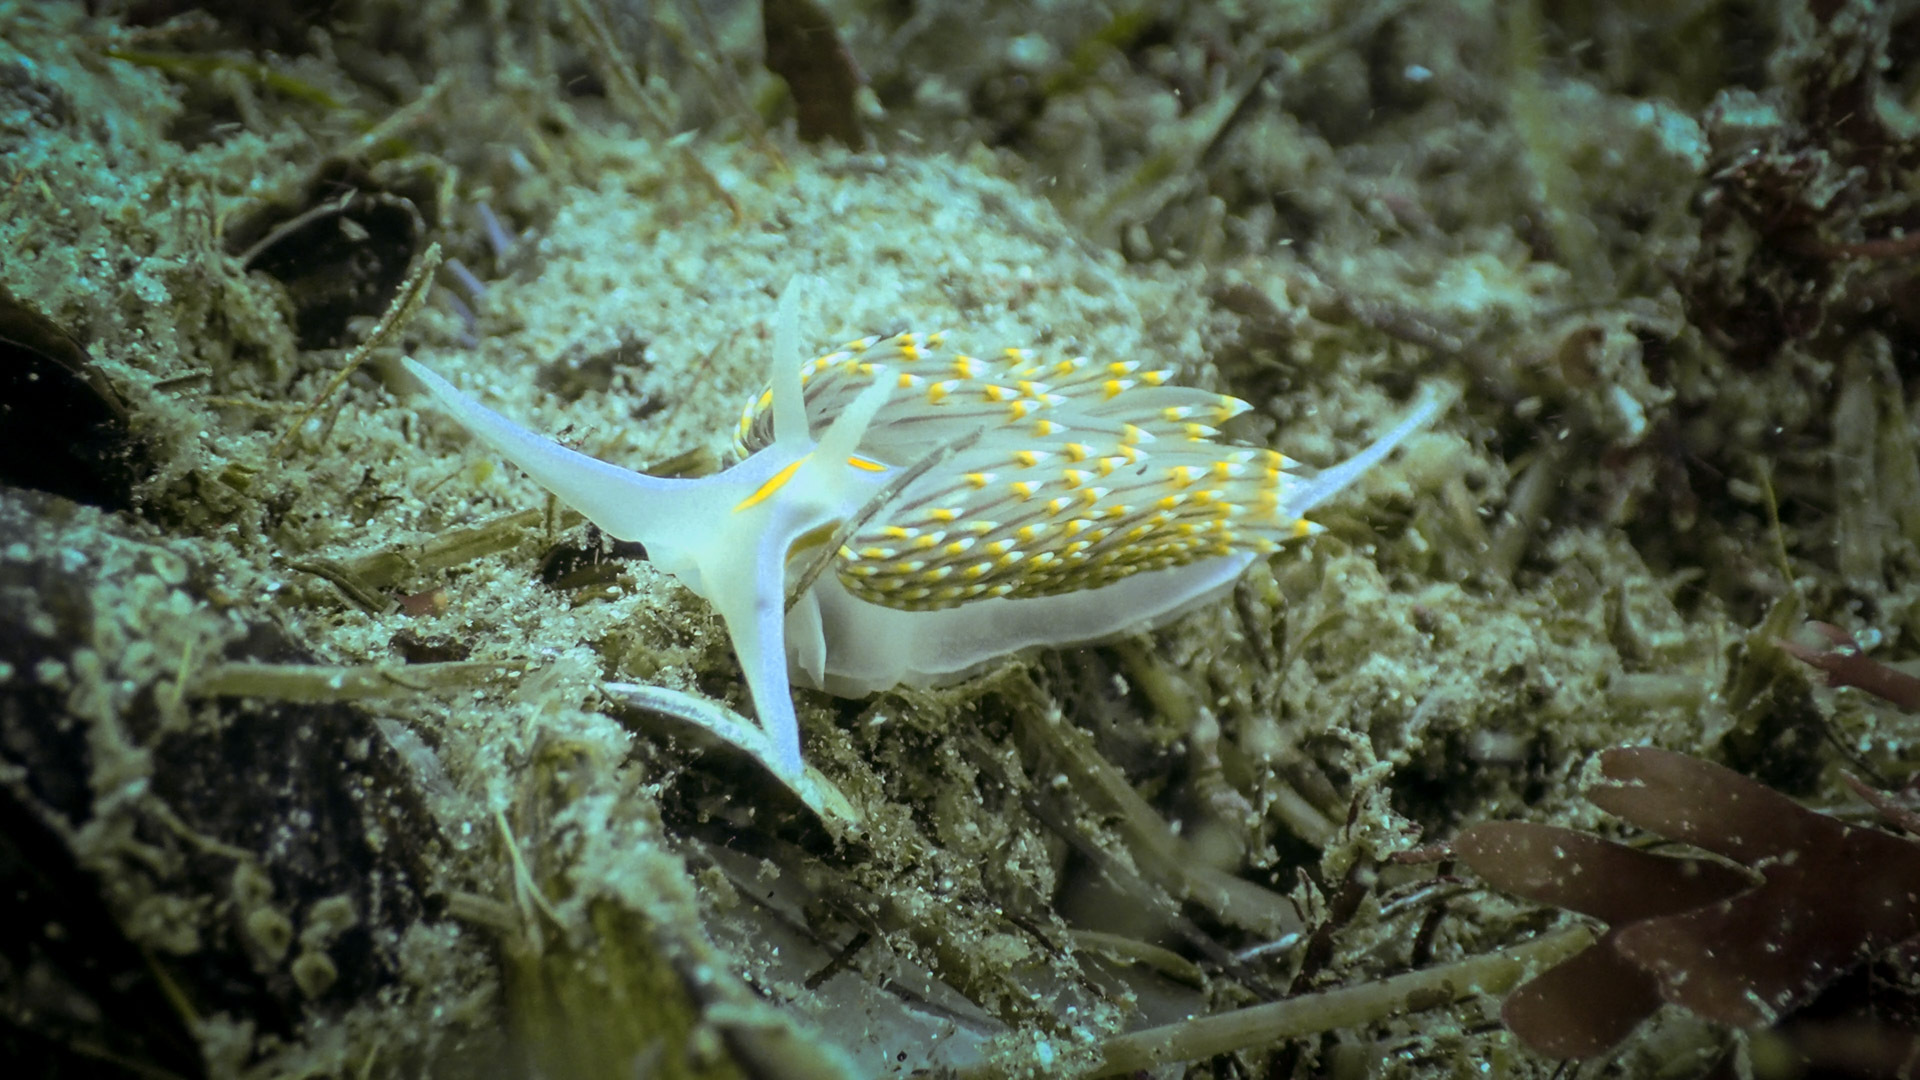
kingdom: Animalia
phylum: Mollusca
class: Gastropoda
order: Nudibranchia
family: Myrrhinidae
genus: Hermissenda
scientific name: Hermissenda opalescens
